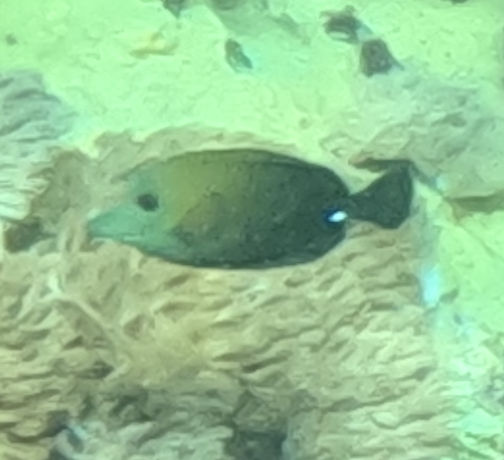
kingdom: Animalia
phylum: Chordata
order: Perciformes
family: Acanthuridae
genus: Zebrasoma
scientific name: Zebrasoma scopas
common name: Twotone tang
